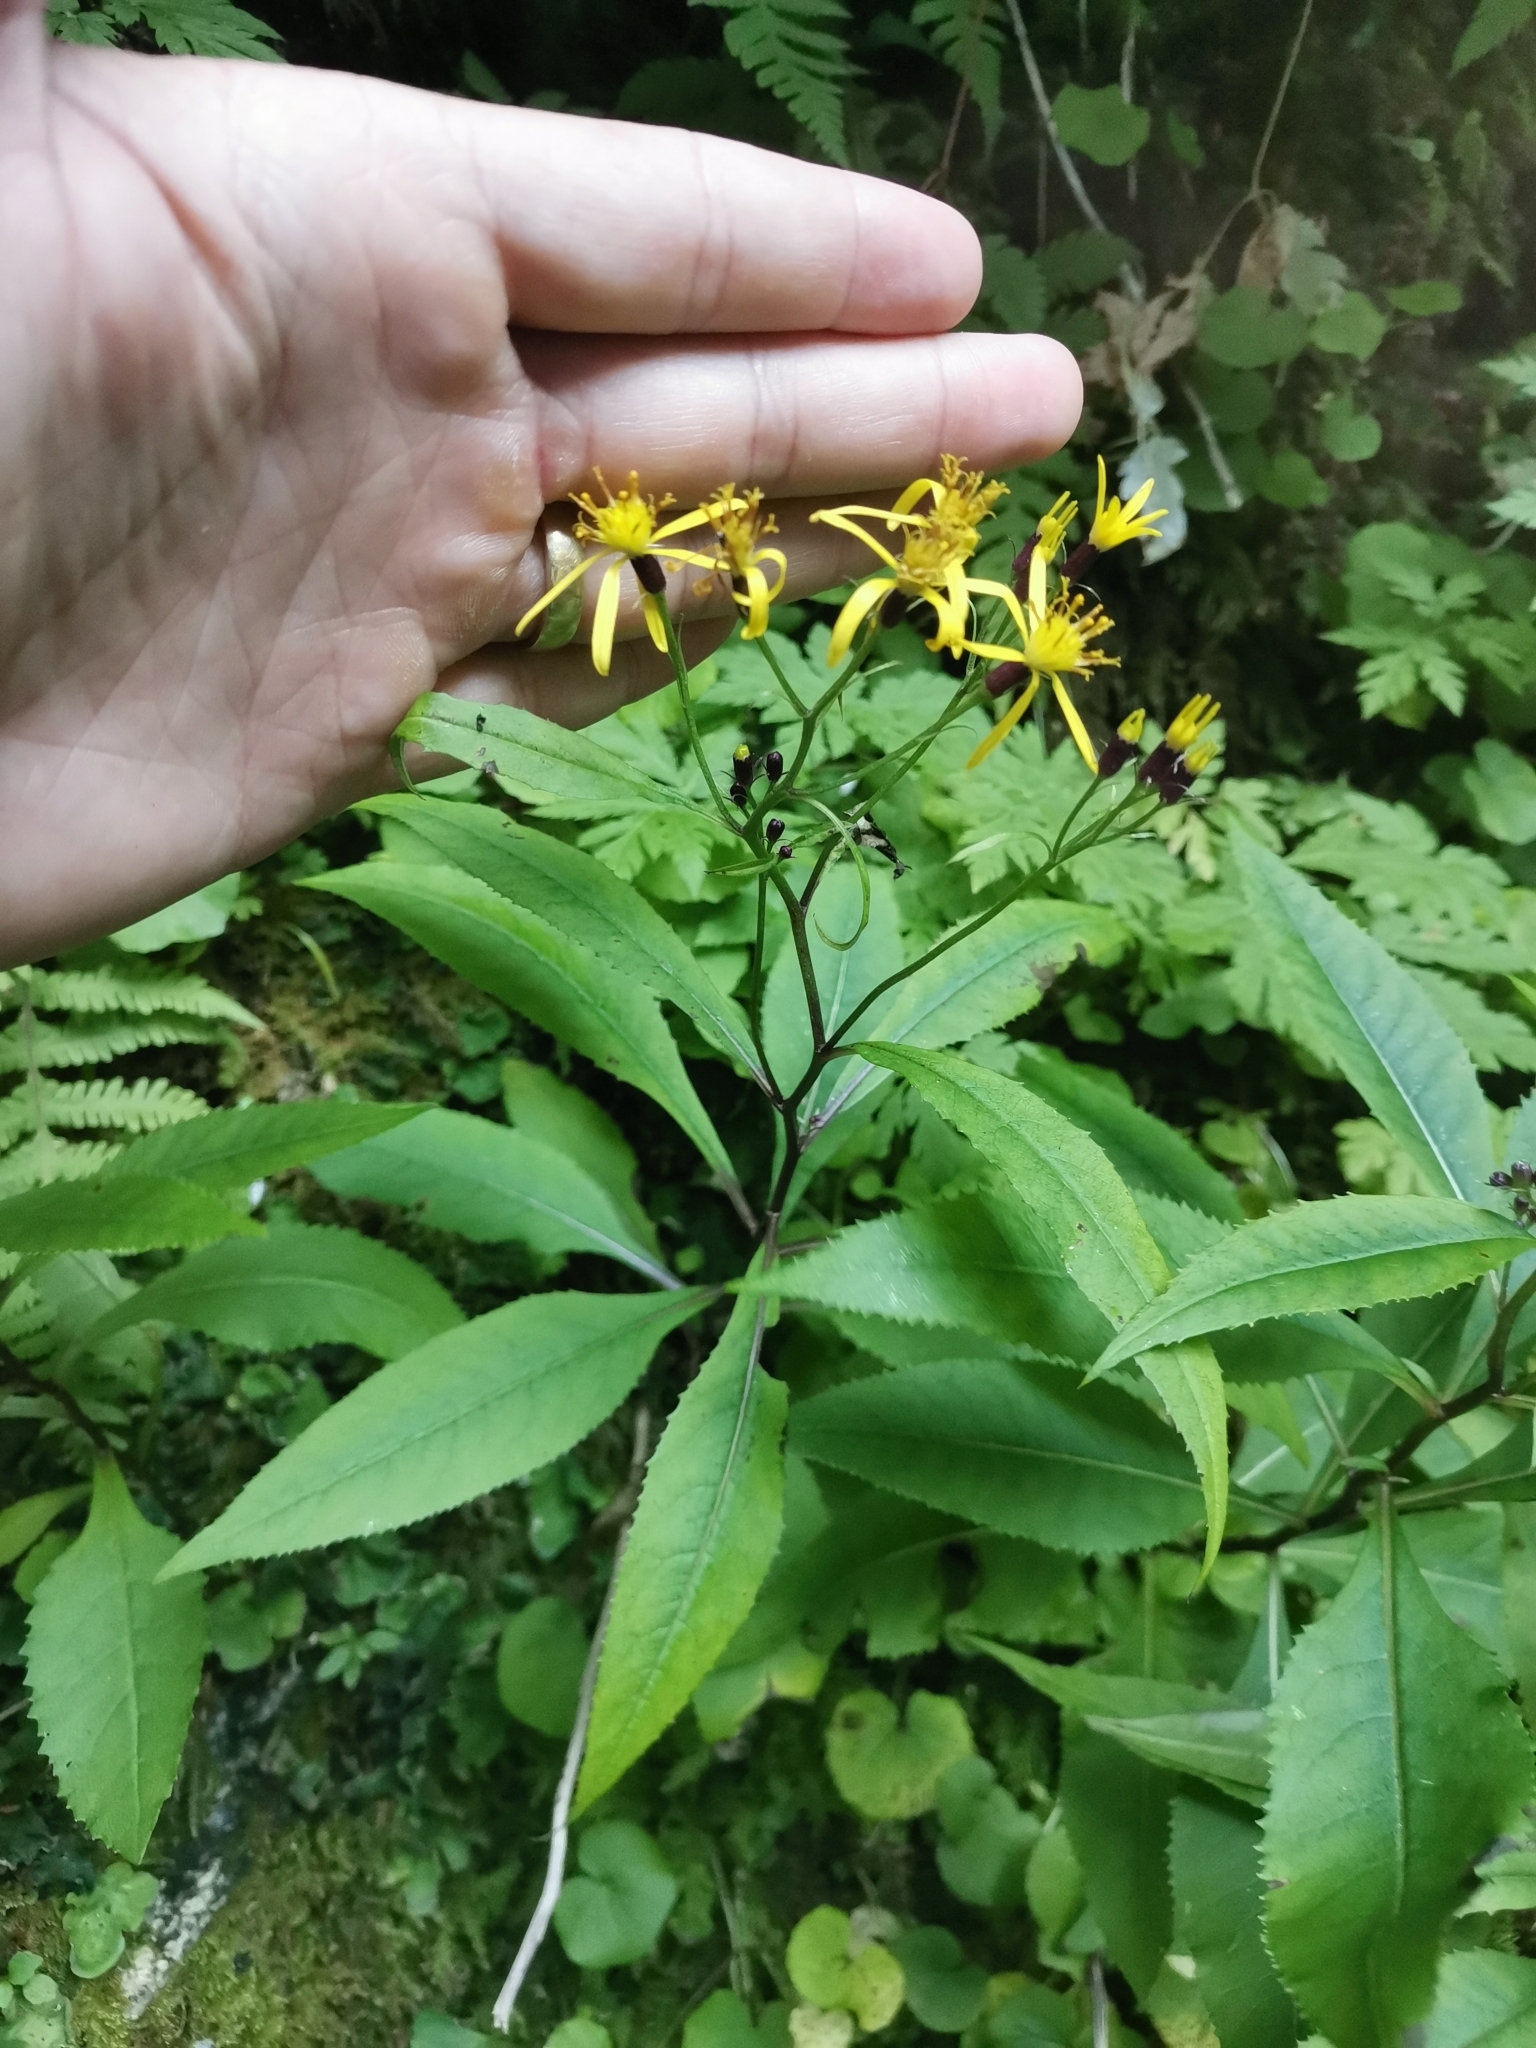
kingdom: Plantae
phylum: Tracheophyta
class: Magnoliopsida
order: Asterales
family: Asteraceae
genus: Senecio
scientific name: Senecio ovatus
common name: Wood ragwort
